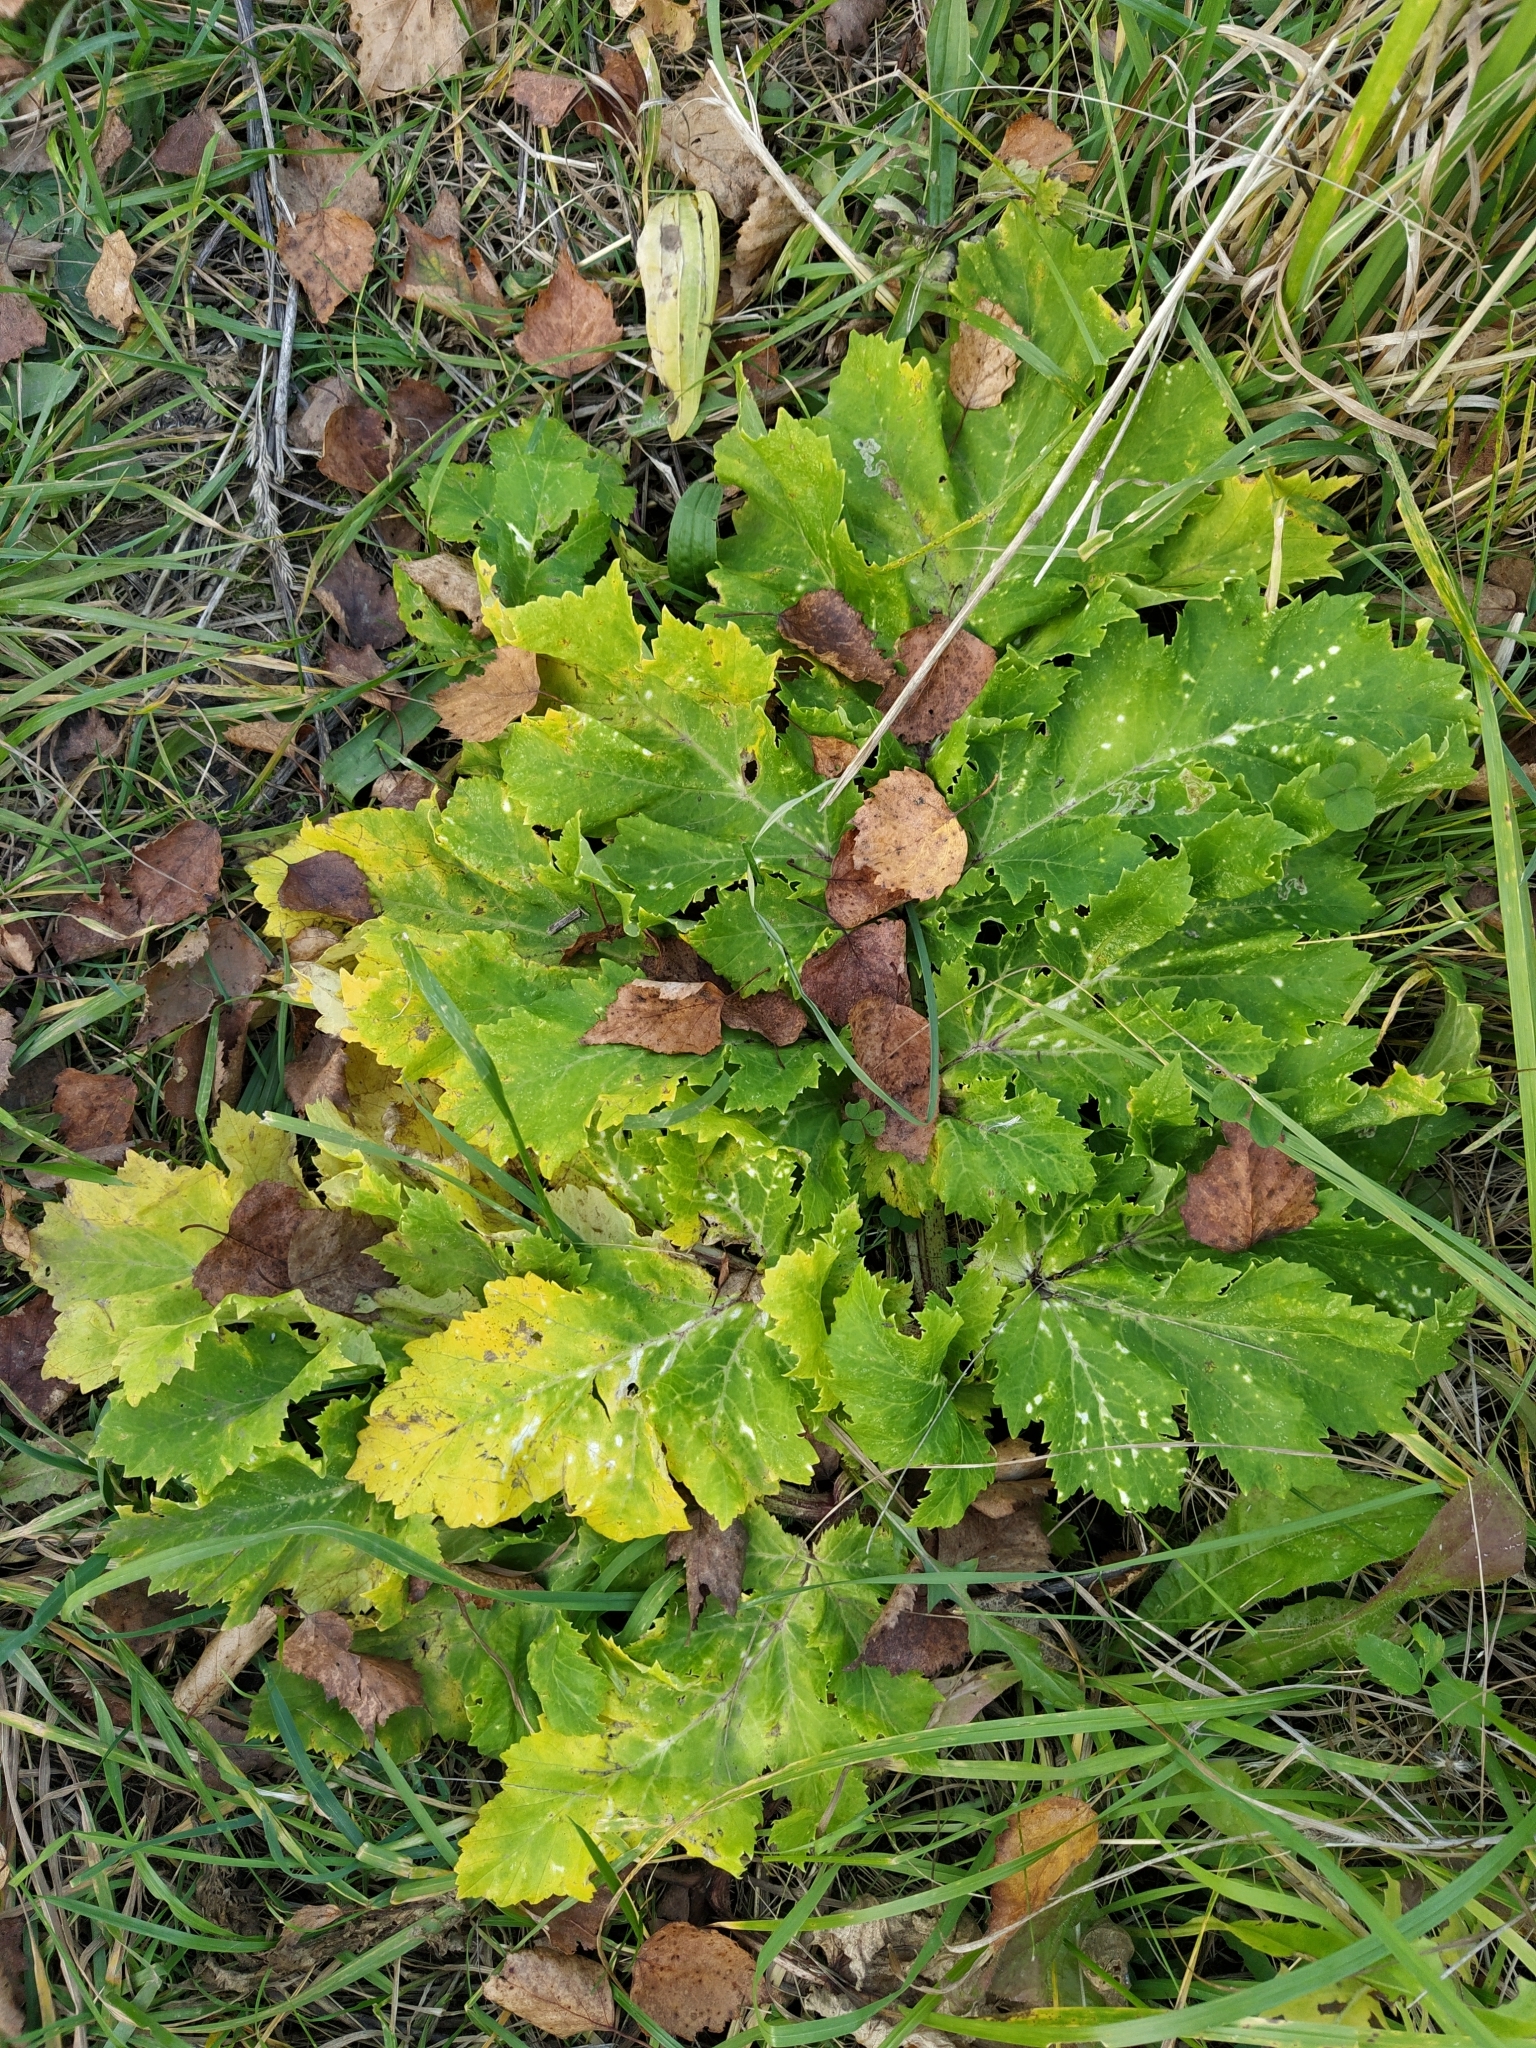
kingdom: Plantae
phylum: Tracheophyta
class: Magnoliopsida
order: Apiales
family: Apiaceae
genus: Heracleum
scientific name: Heracleum sosnowskyi
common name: Sosnowsky's hogweed
